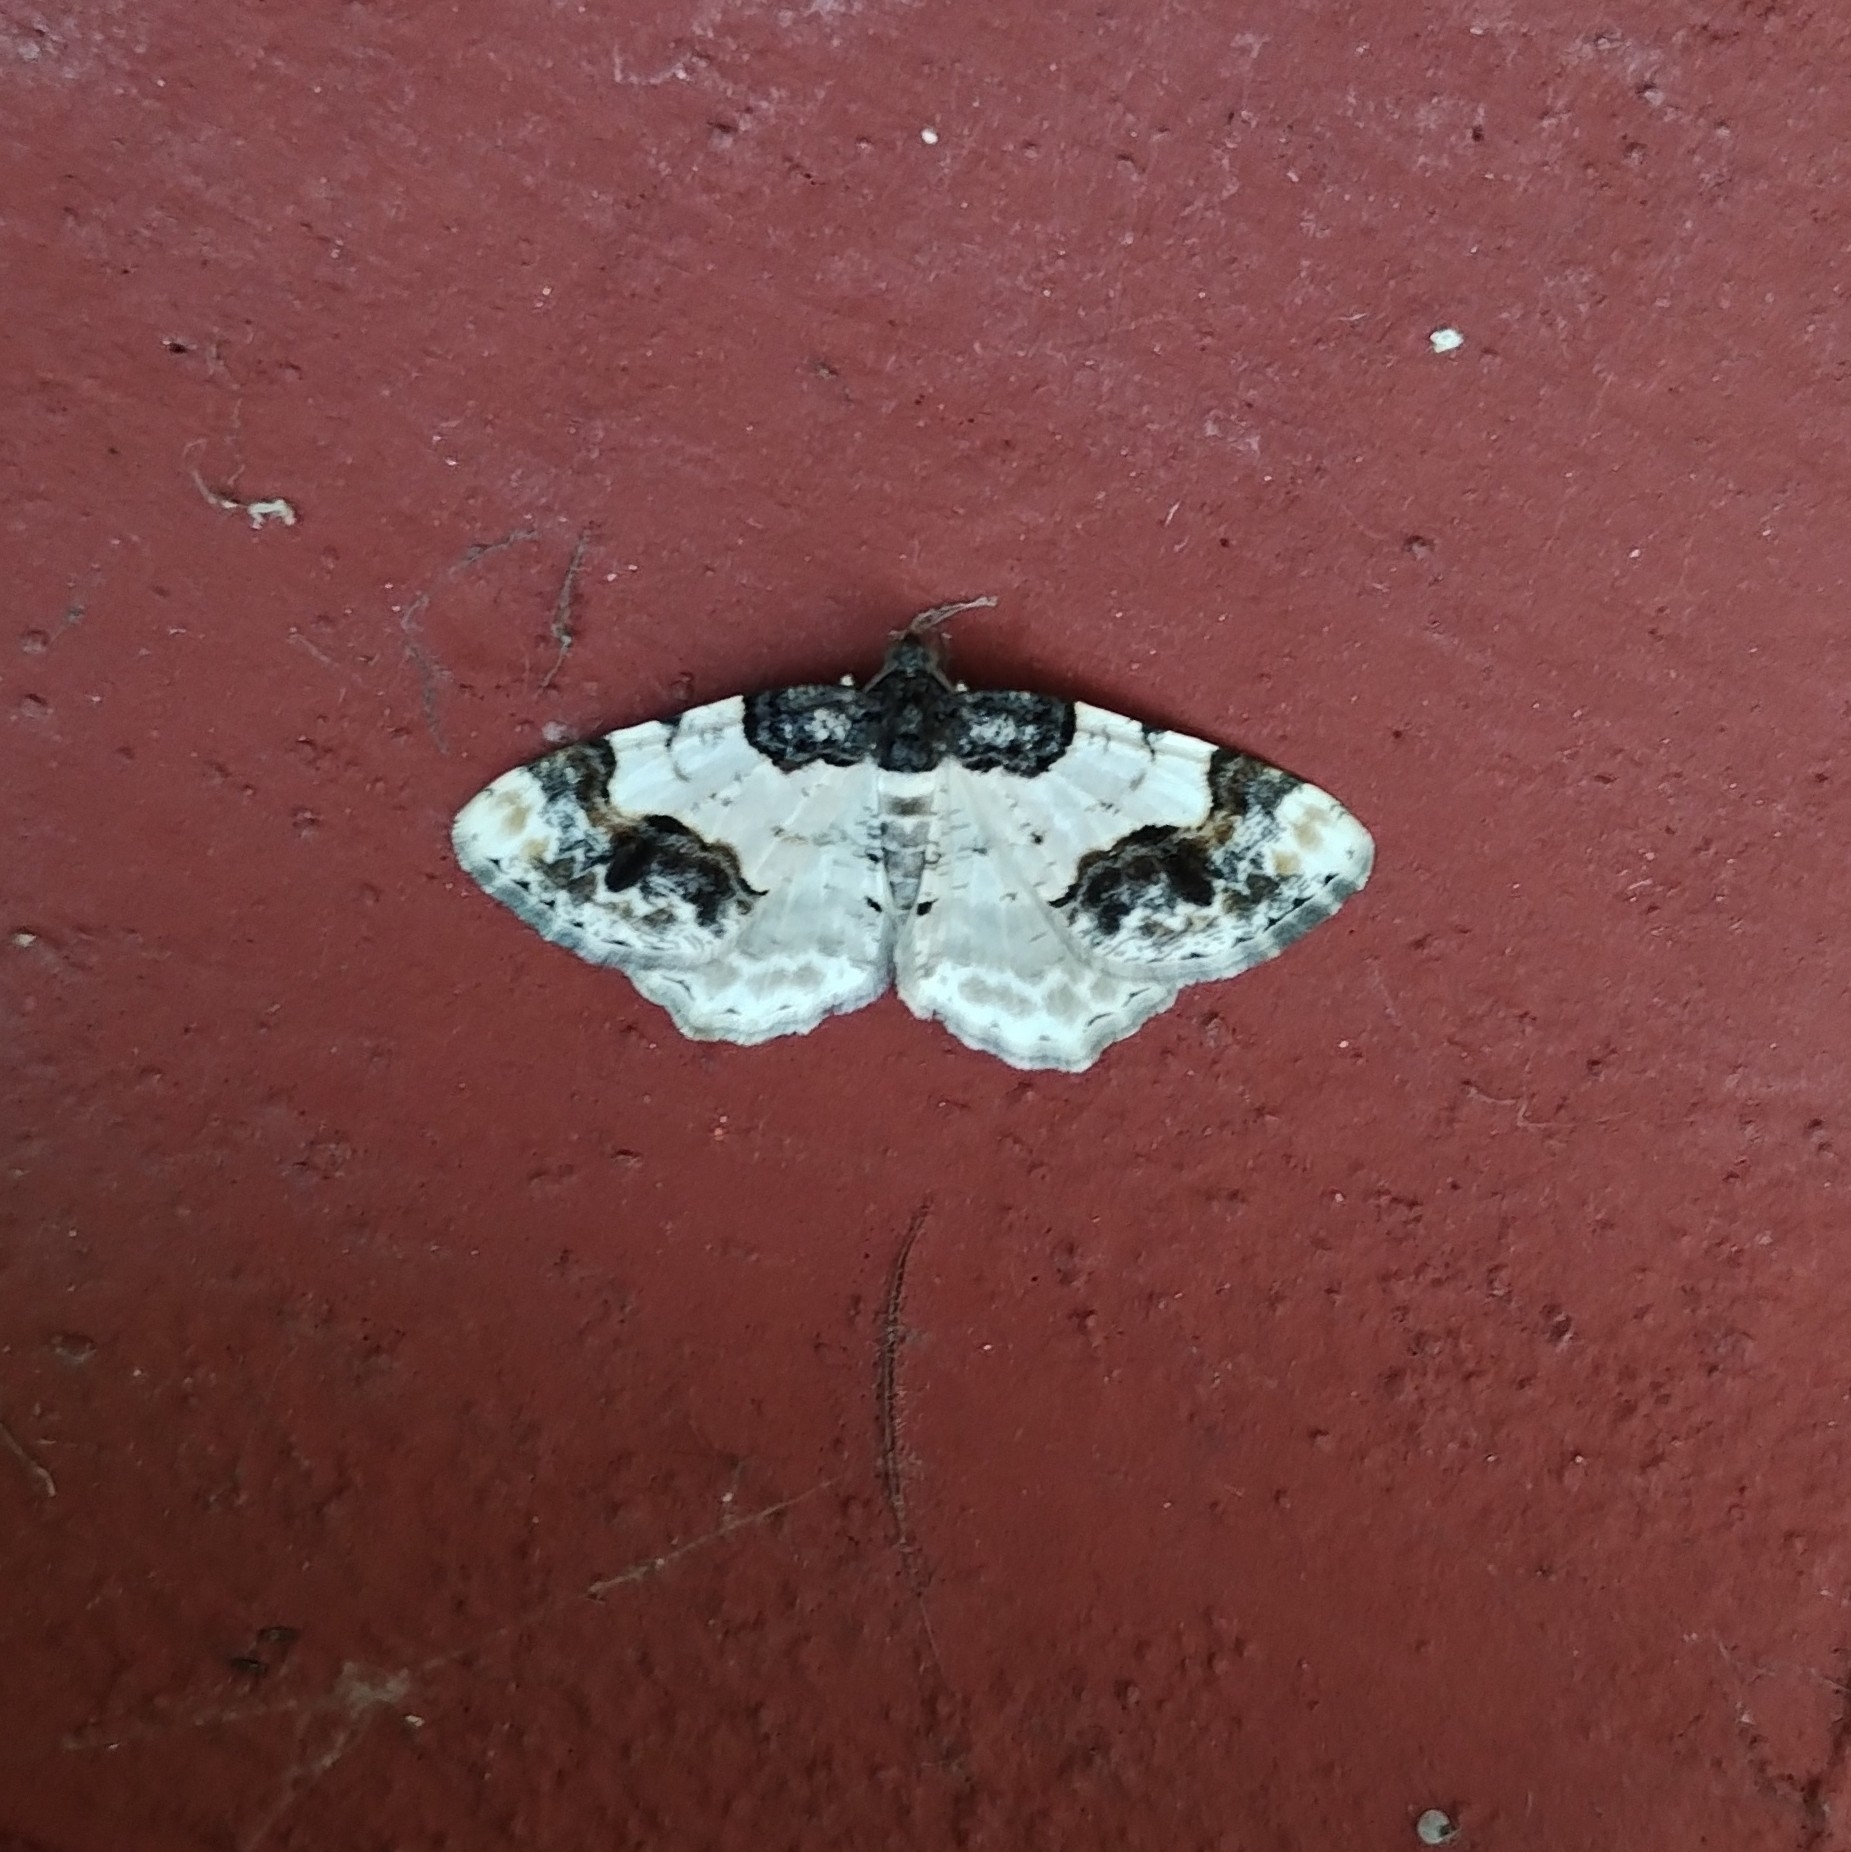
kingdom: Animalia
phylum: Arthropoda
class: Insecta
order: Lepidoptera
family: Geometridae
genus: Ligdia
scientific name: Ligdia adustata
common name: Scorched carpet
